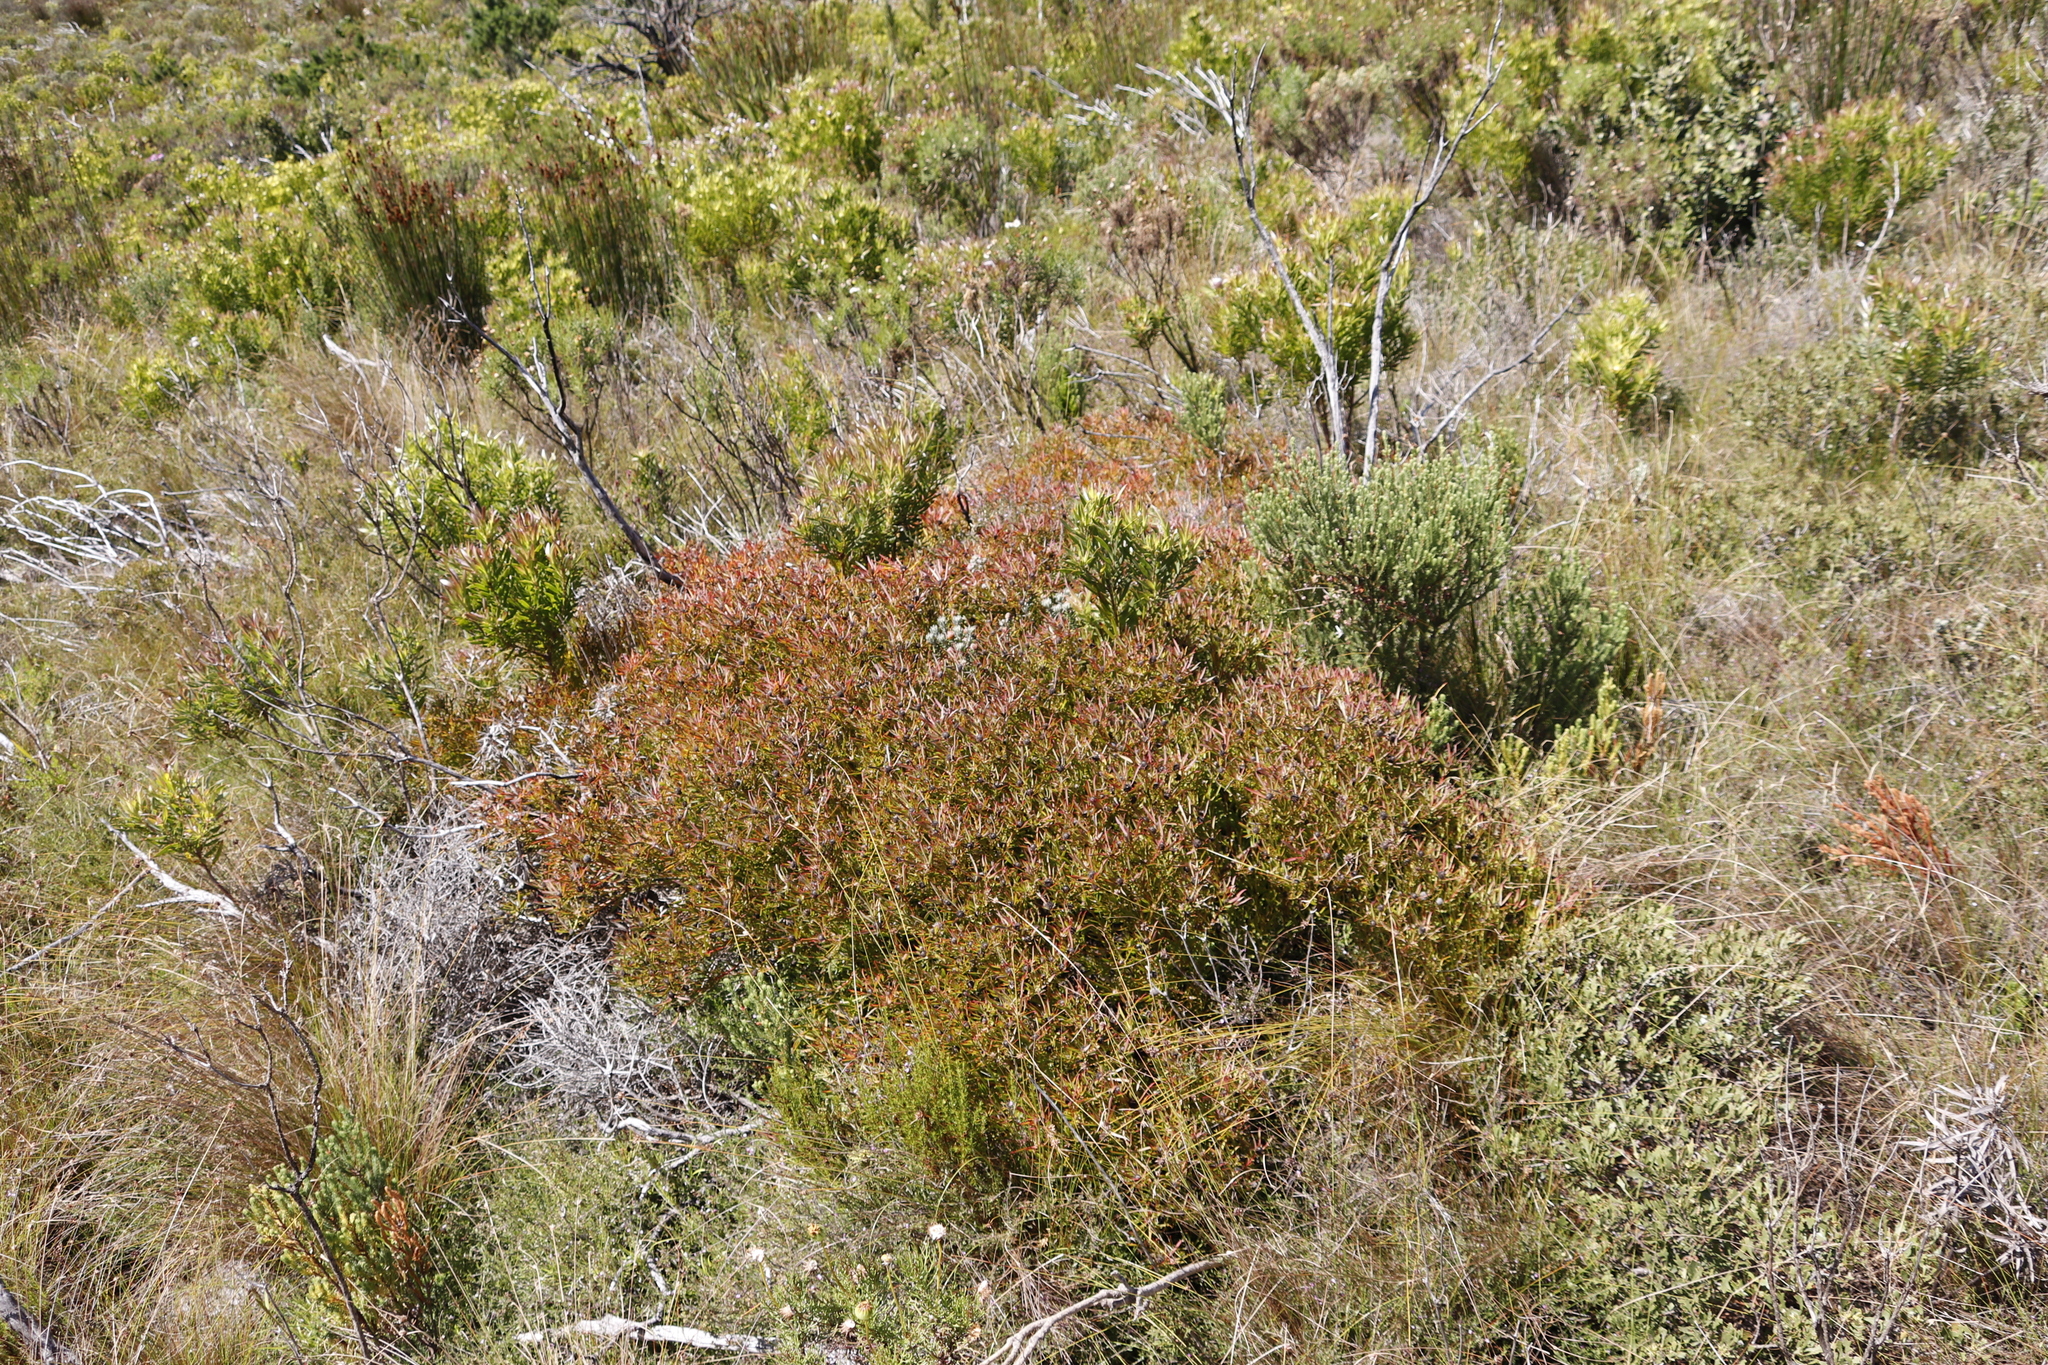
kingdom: Plantae
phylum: Tracheophyta
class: Magnoliopsida
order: Proteales
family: Proteaceae
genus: Leucadendron
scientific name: Leucadendron salignum
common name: Common sunshine conebush
